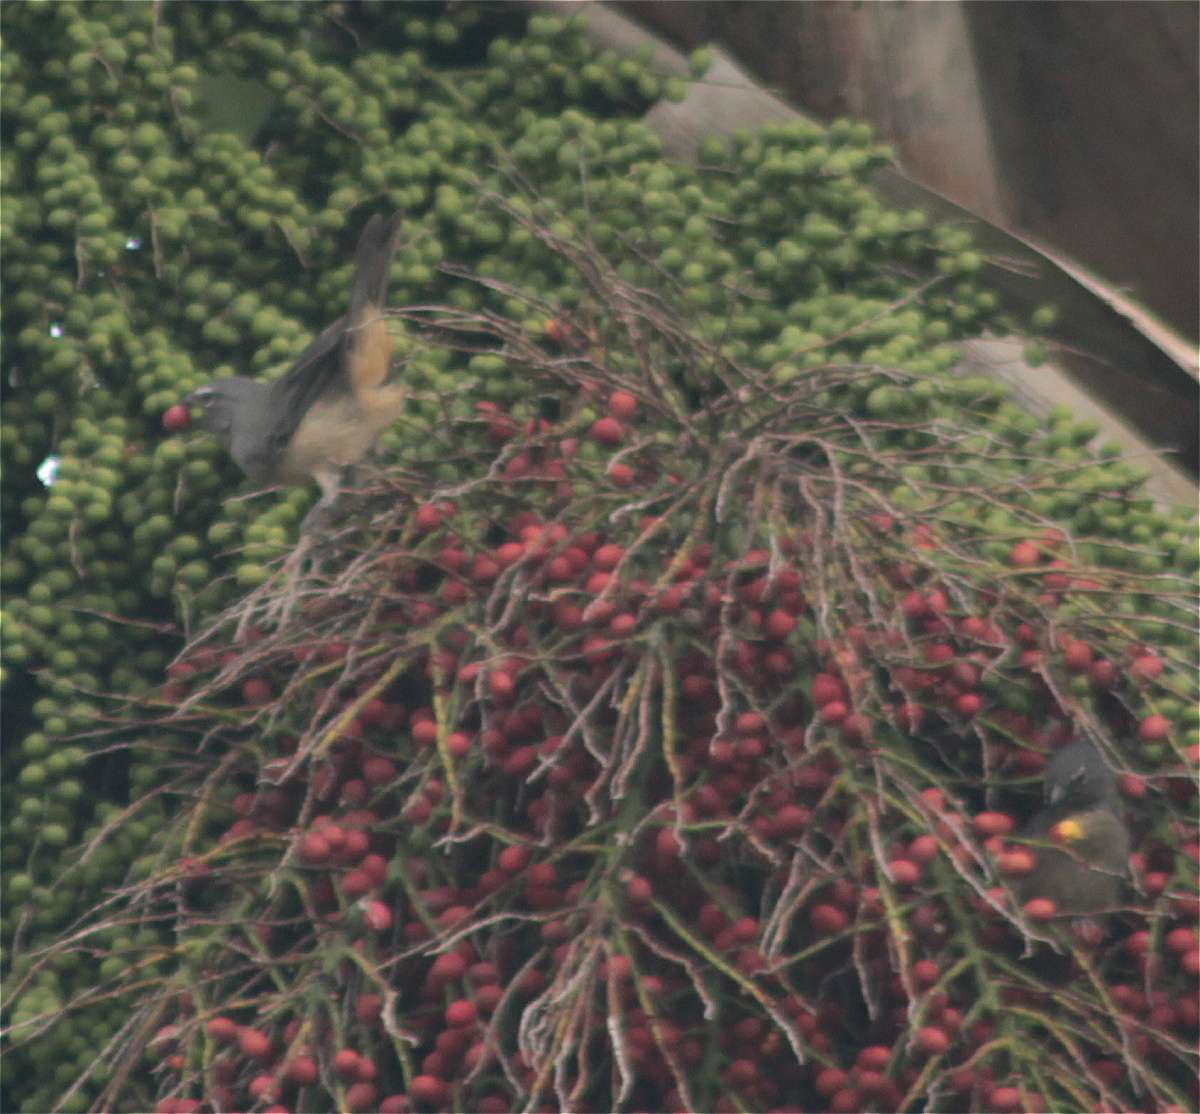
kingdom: Animalia
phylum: Chordata
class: Aves
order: Passeriformes
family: Thraupidae
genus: Saltator
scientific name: Saltator olivascens
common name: Caribbean grey saltator
